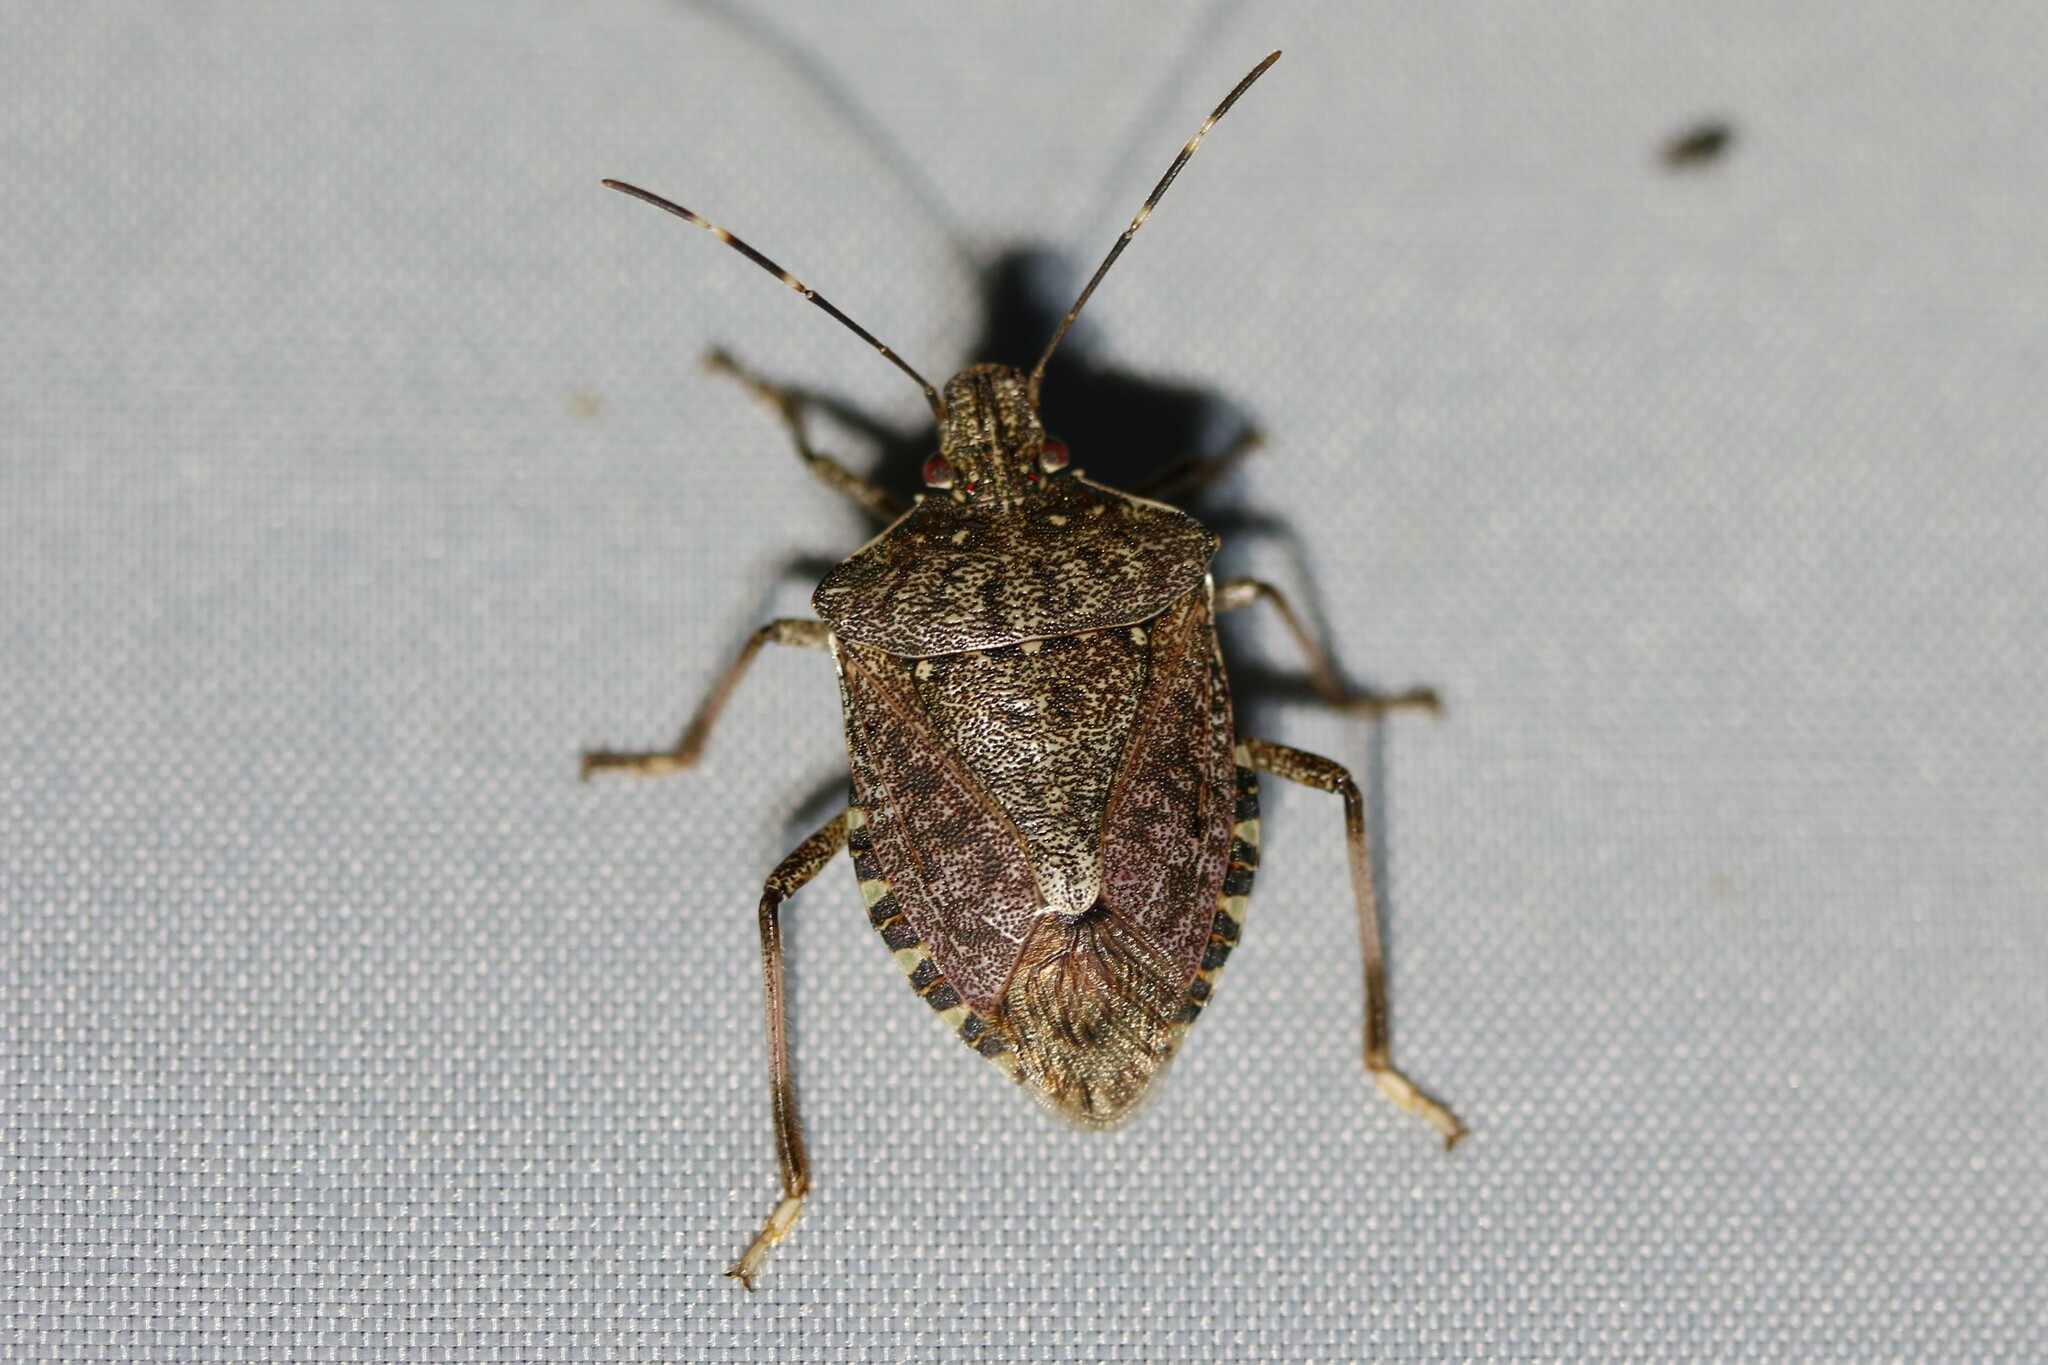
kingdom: Animalia
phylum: Arthropoda
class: Insecta
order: Hemiptera
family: Pentatomidae
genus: Halyomorpha
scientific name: Halyomorpha halys
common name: Brown marmorated stink bug
